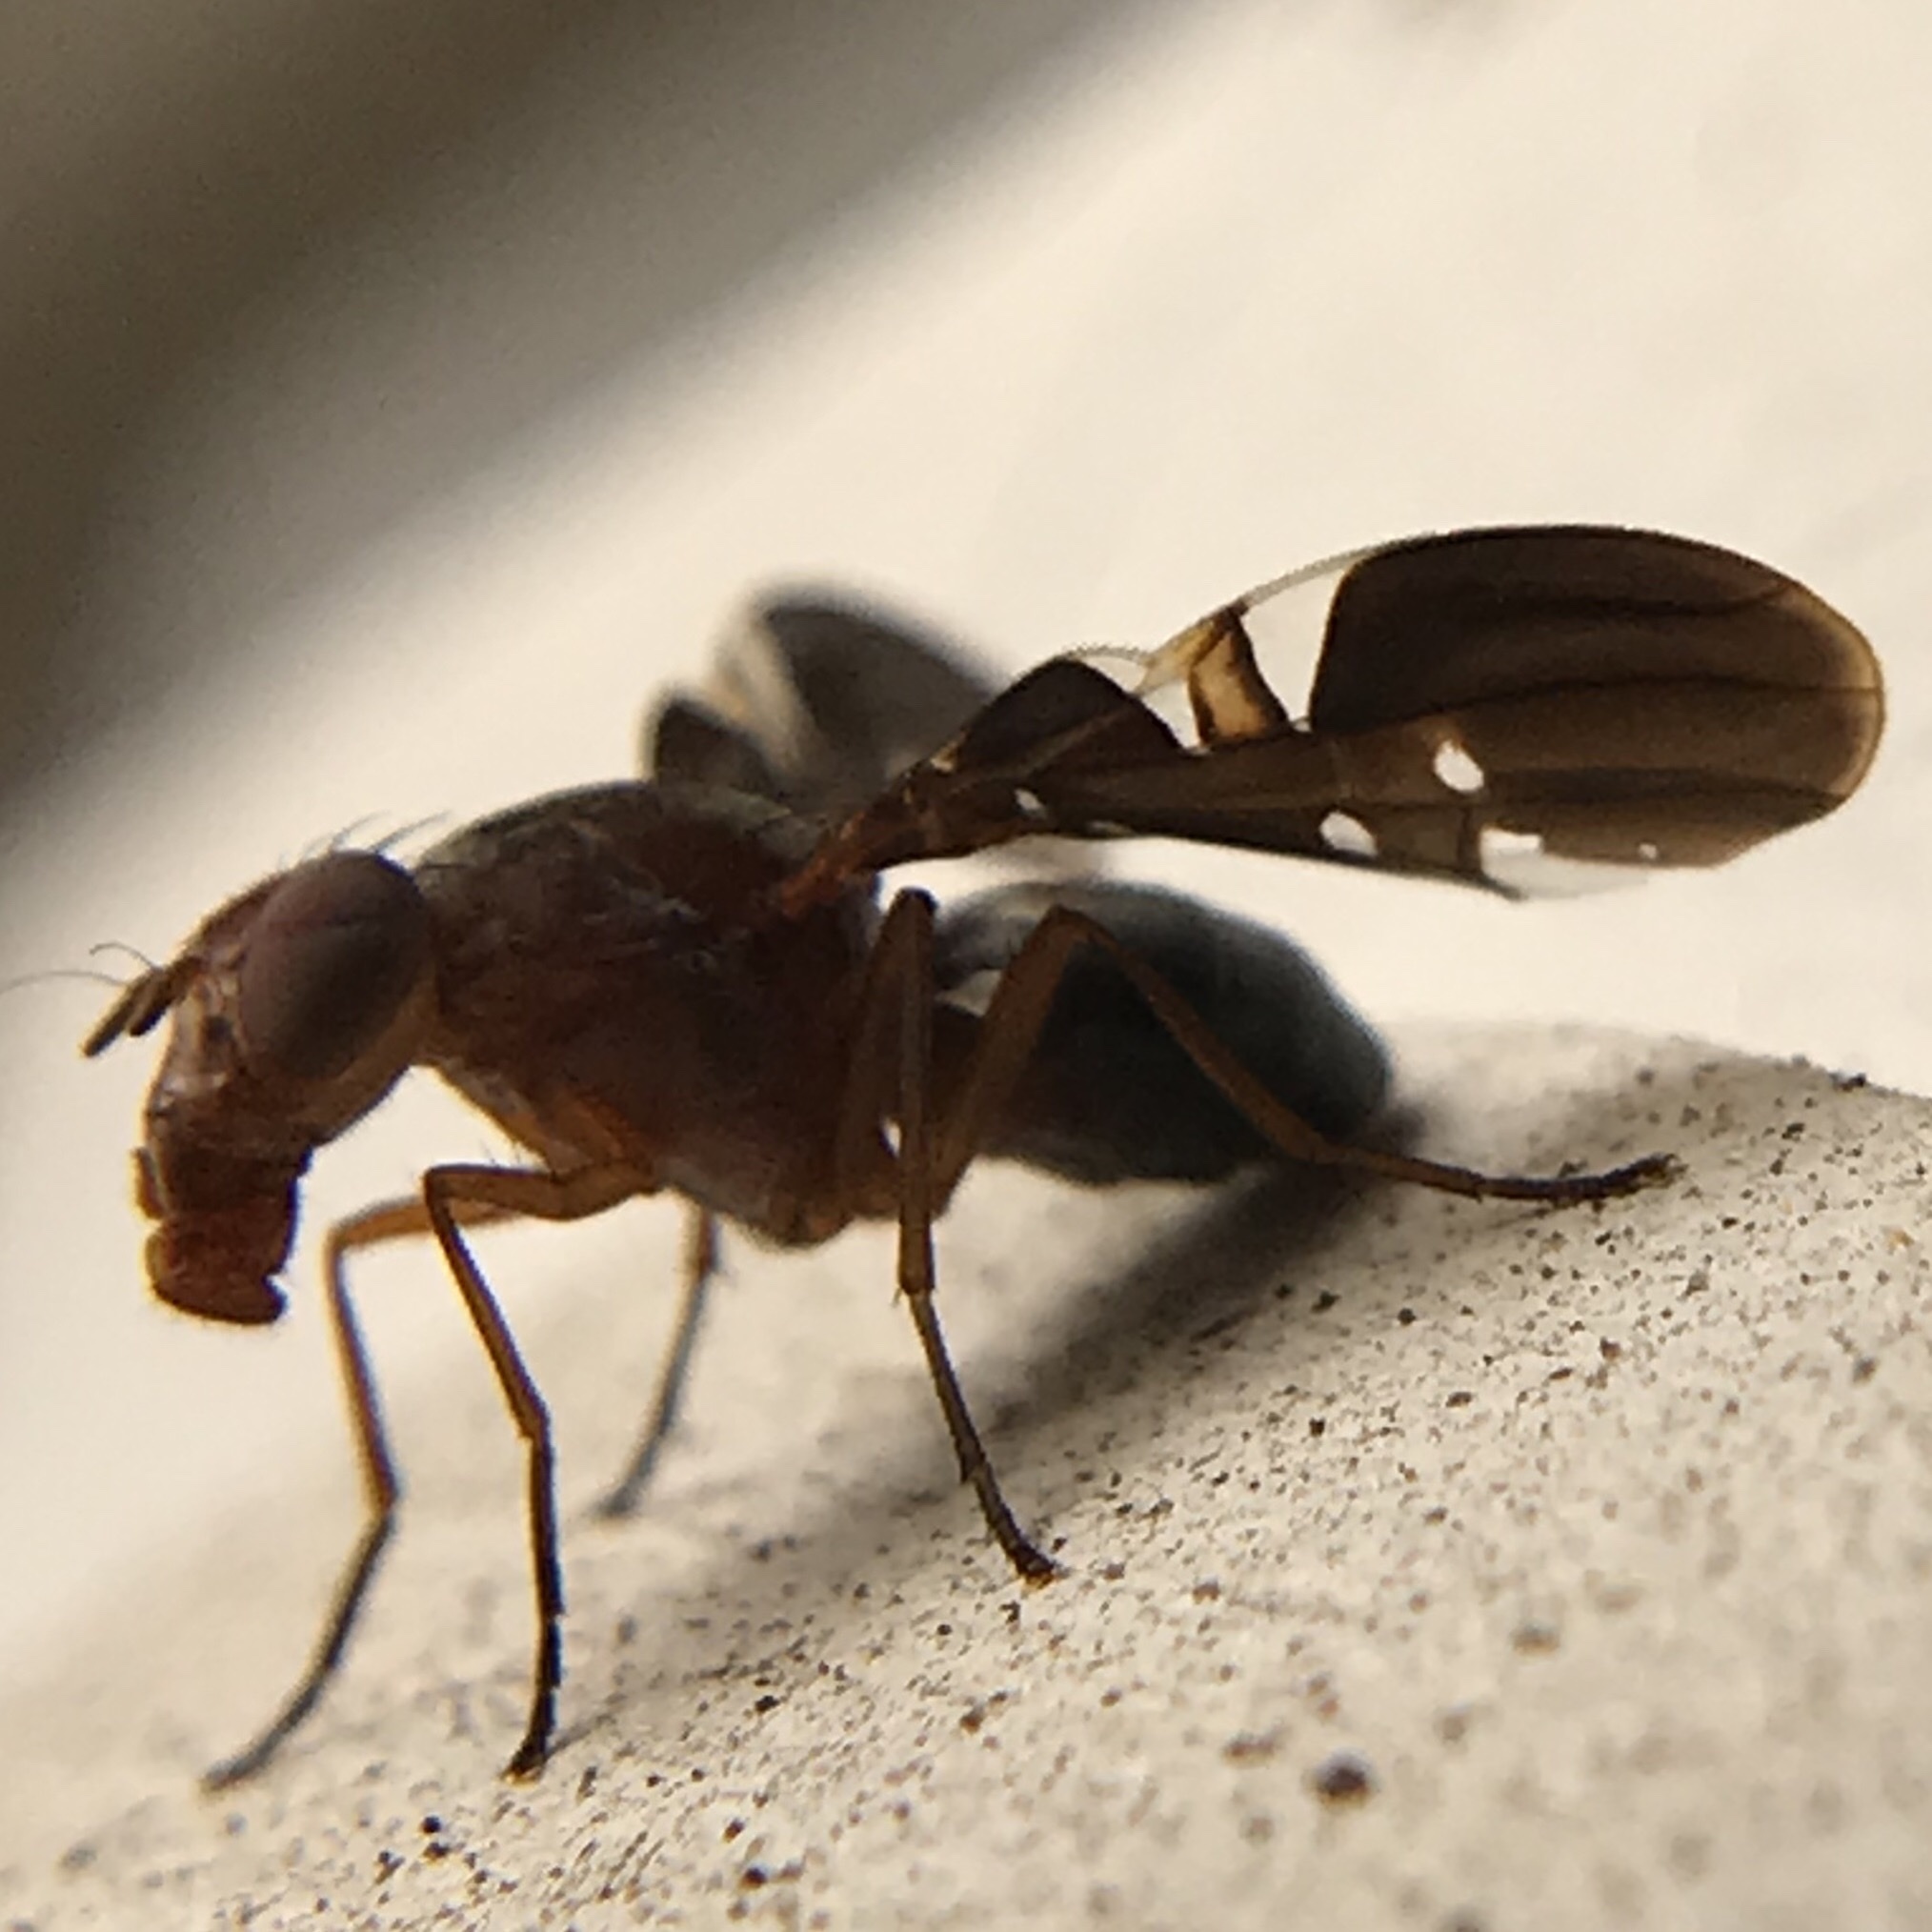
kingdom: Animalia
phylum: Arthropoda
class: Insecta
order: Diptera
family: Ulidiidae
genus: Delphinia
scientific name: Delphinia picta
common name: Common picture-winged fly
